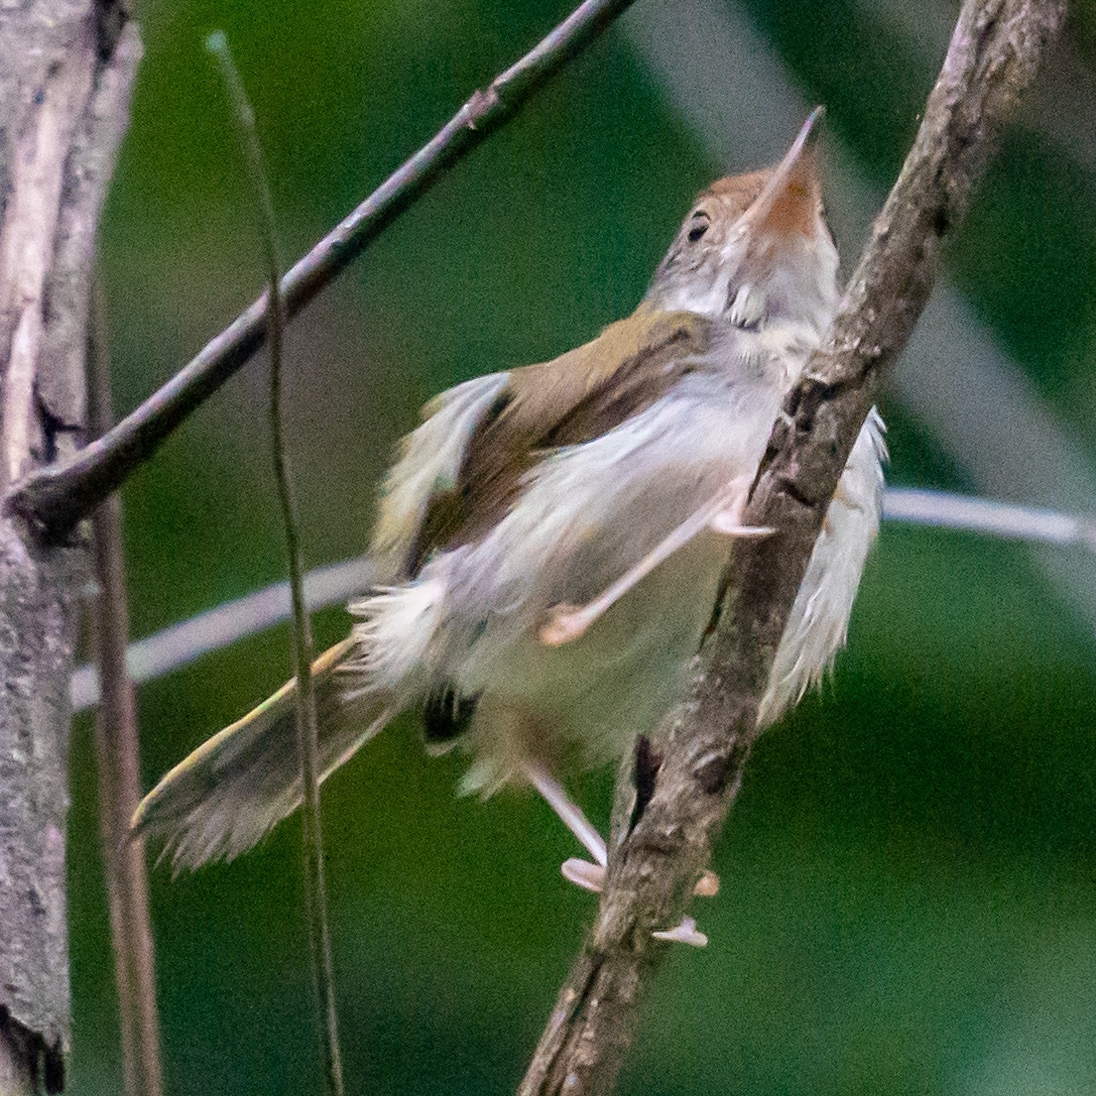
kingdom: Animalia
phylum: Chordata
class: Aves
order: Passeriformes
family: Cisticolidae
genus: Orthotomus
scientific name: Orthotomus sutorius
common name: Common tailorbird
